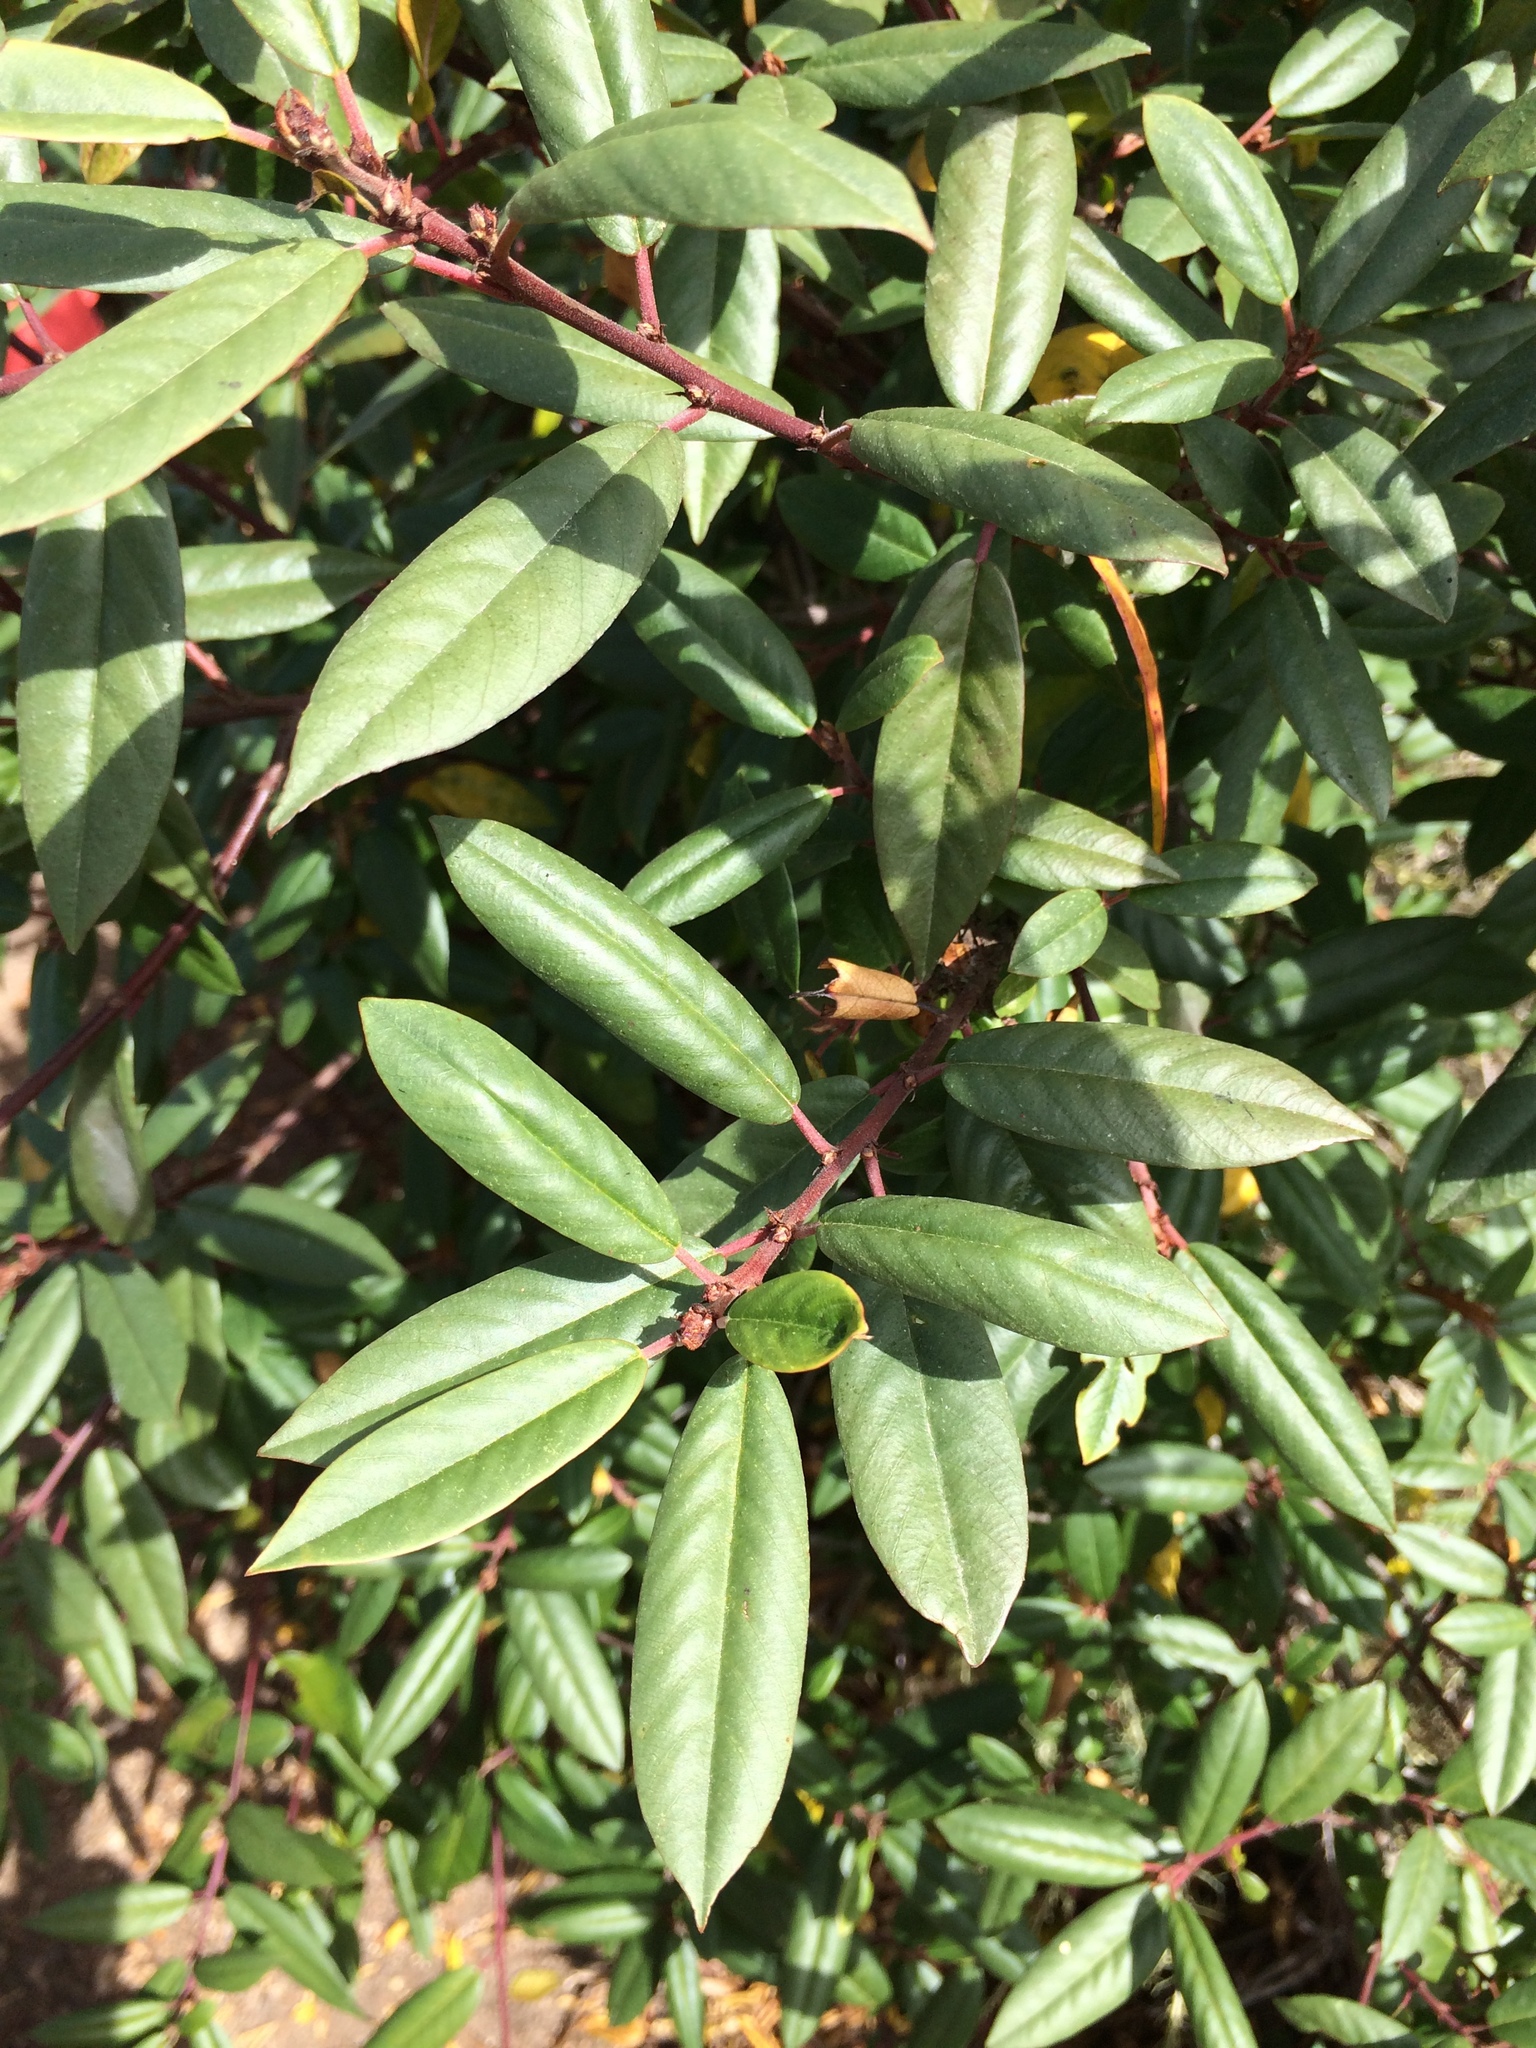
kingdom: Plantae
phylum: Tracheophyta
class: Magnoliopsida
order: Rosales
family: Rhamnaceae
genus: Frangula
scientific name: Frangula californica
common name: California buckthorn
